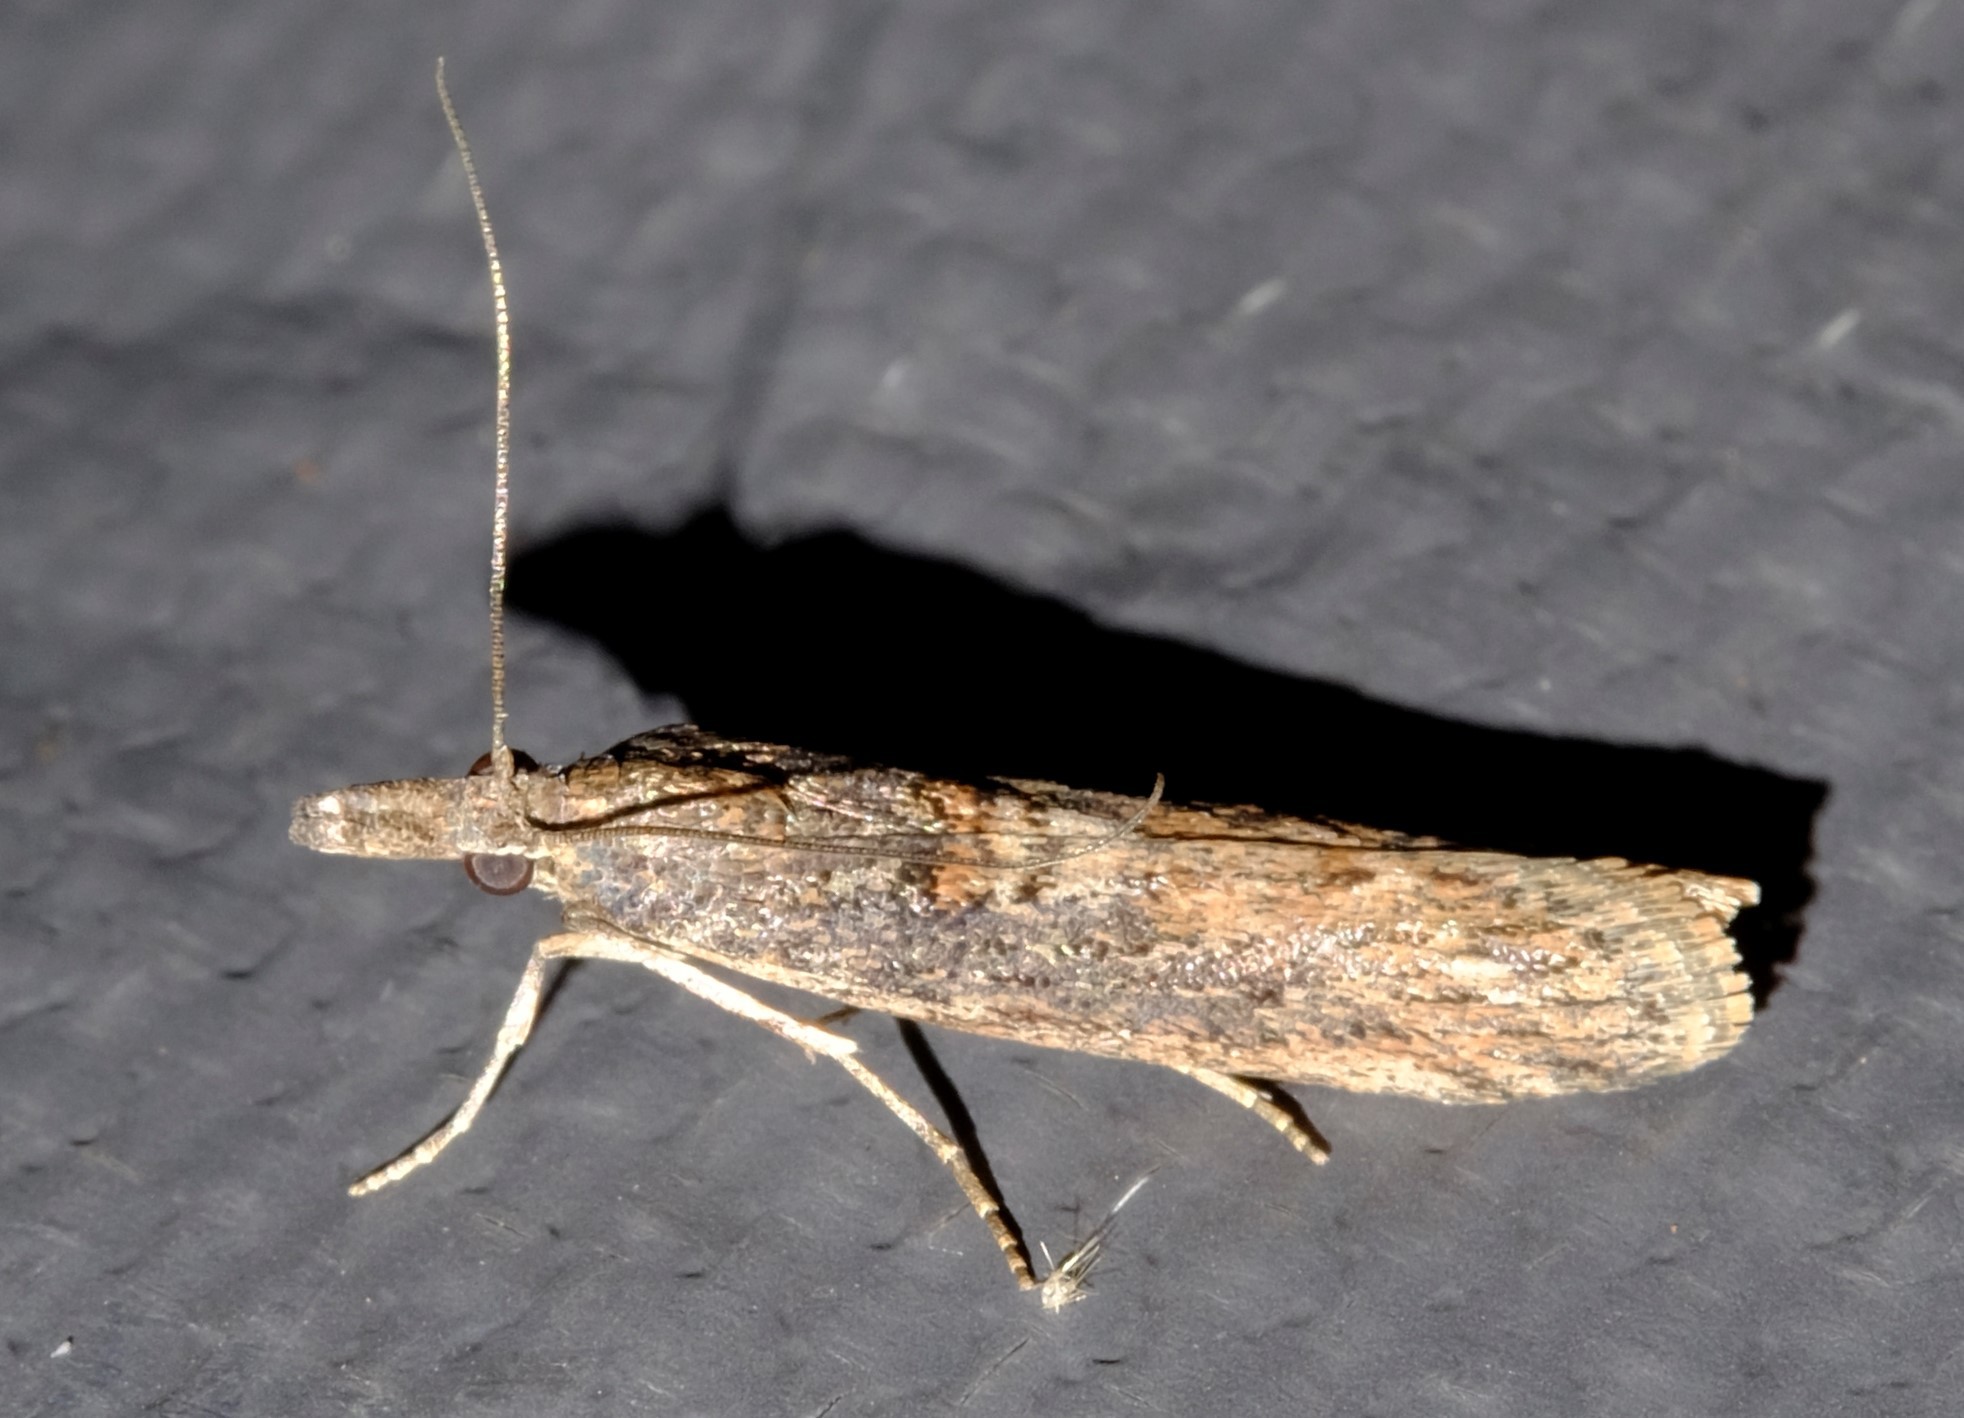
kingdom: Animalia
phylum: Arthropoda
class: Insecta
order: Lepidoptera
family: Pyralidae
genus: Crocydopora
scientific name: Crocydopora cinigerella
